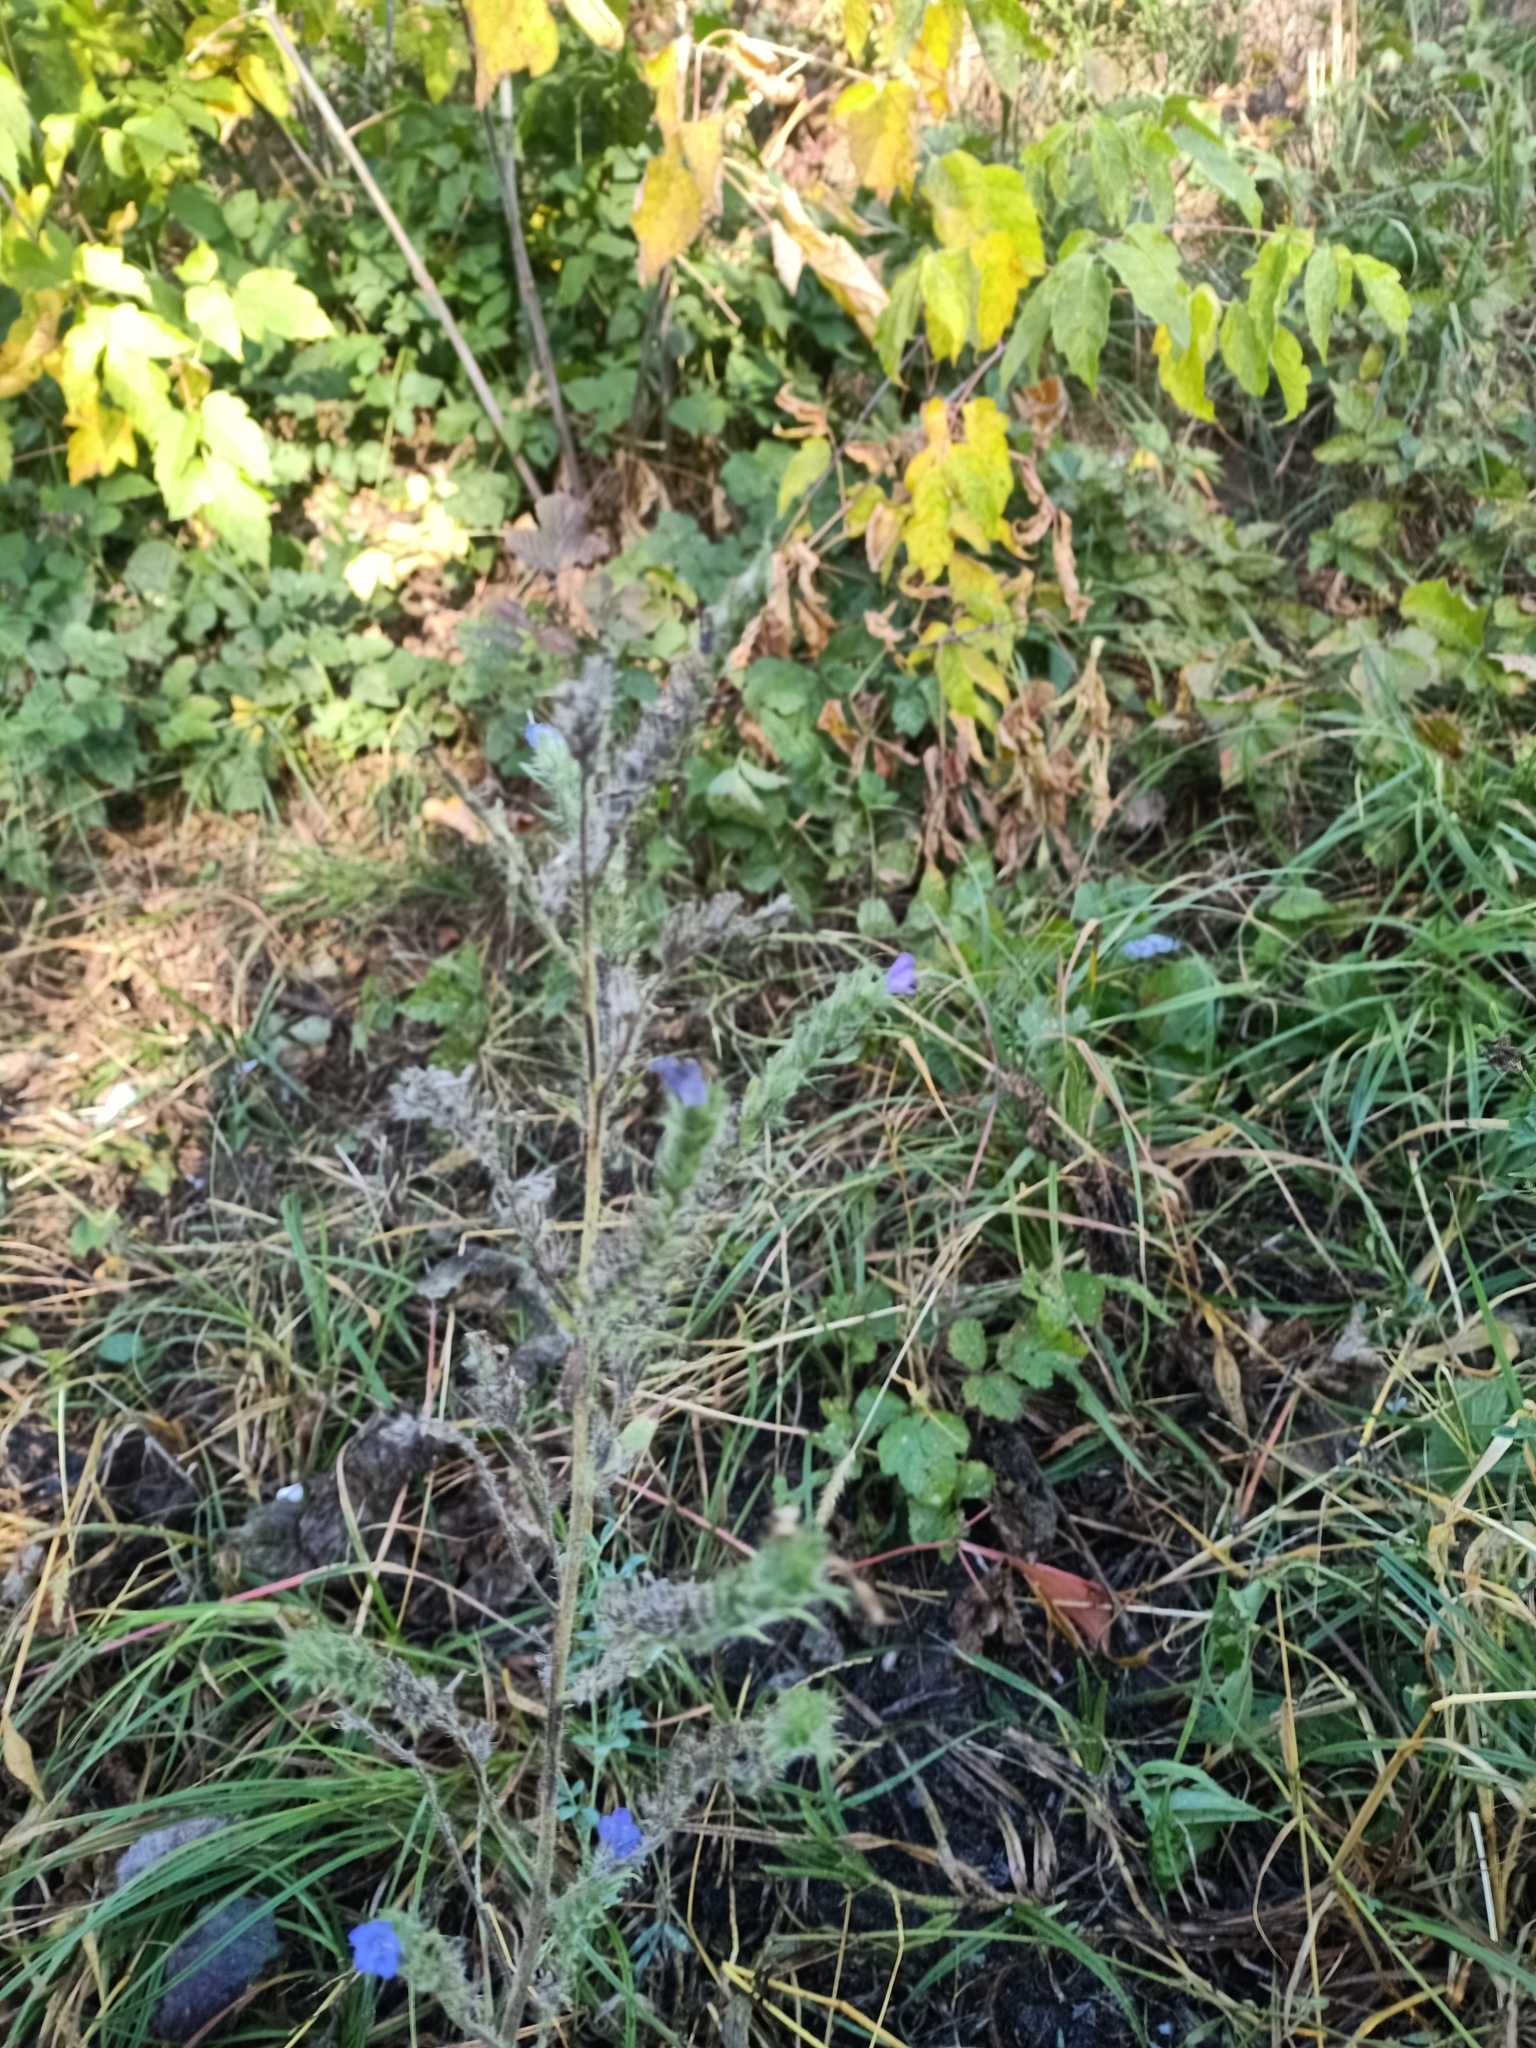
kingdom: Plantae
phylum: Tracheophyta
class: Magnoliopsida
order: Boraginales
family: Boraginaceae
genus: Echium
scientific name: Echium vulgare
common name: Common viper's bugloss
